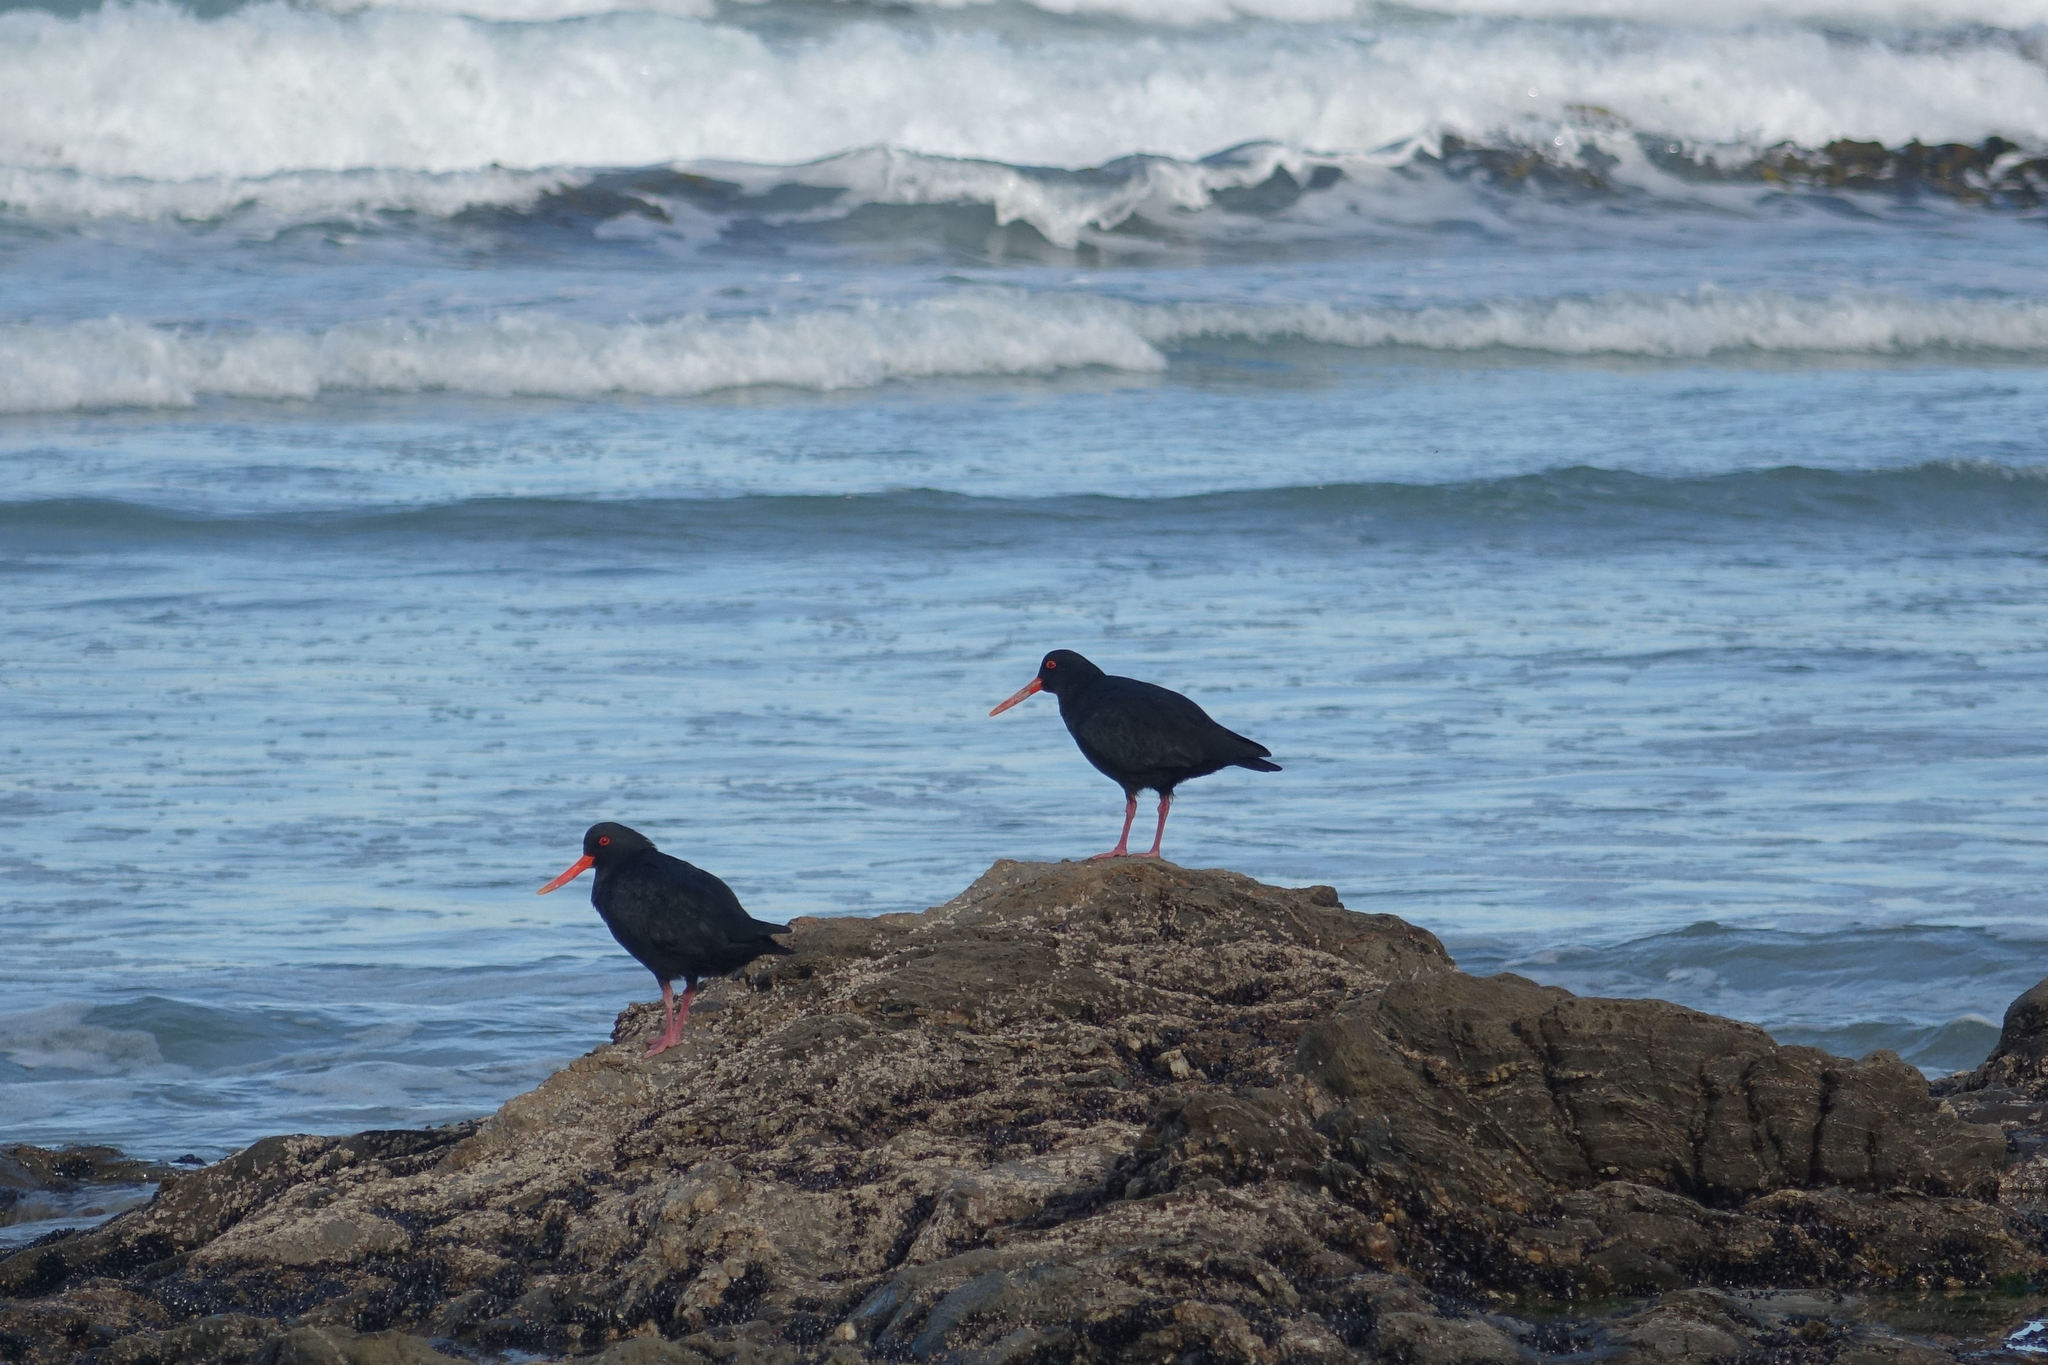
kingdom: Animalia
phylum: Chordata
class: Aves
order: Charadriiformes
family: Haematopodidae
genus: Haematopus
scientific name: Haematopus unicolor
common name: Variable oystercatcher
